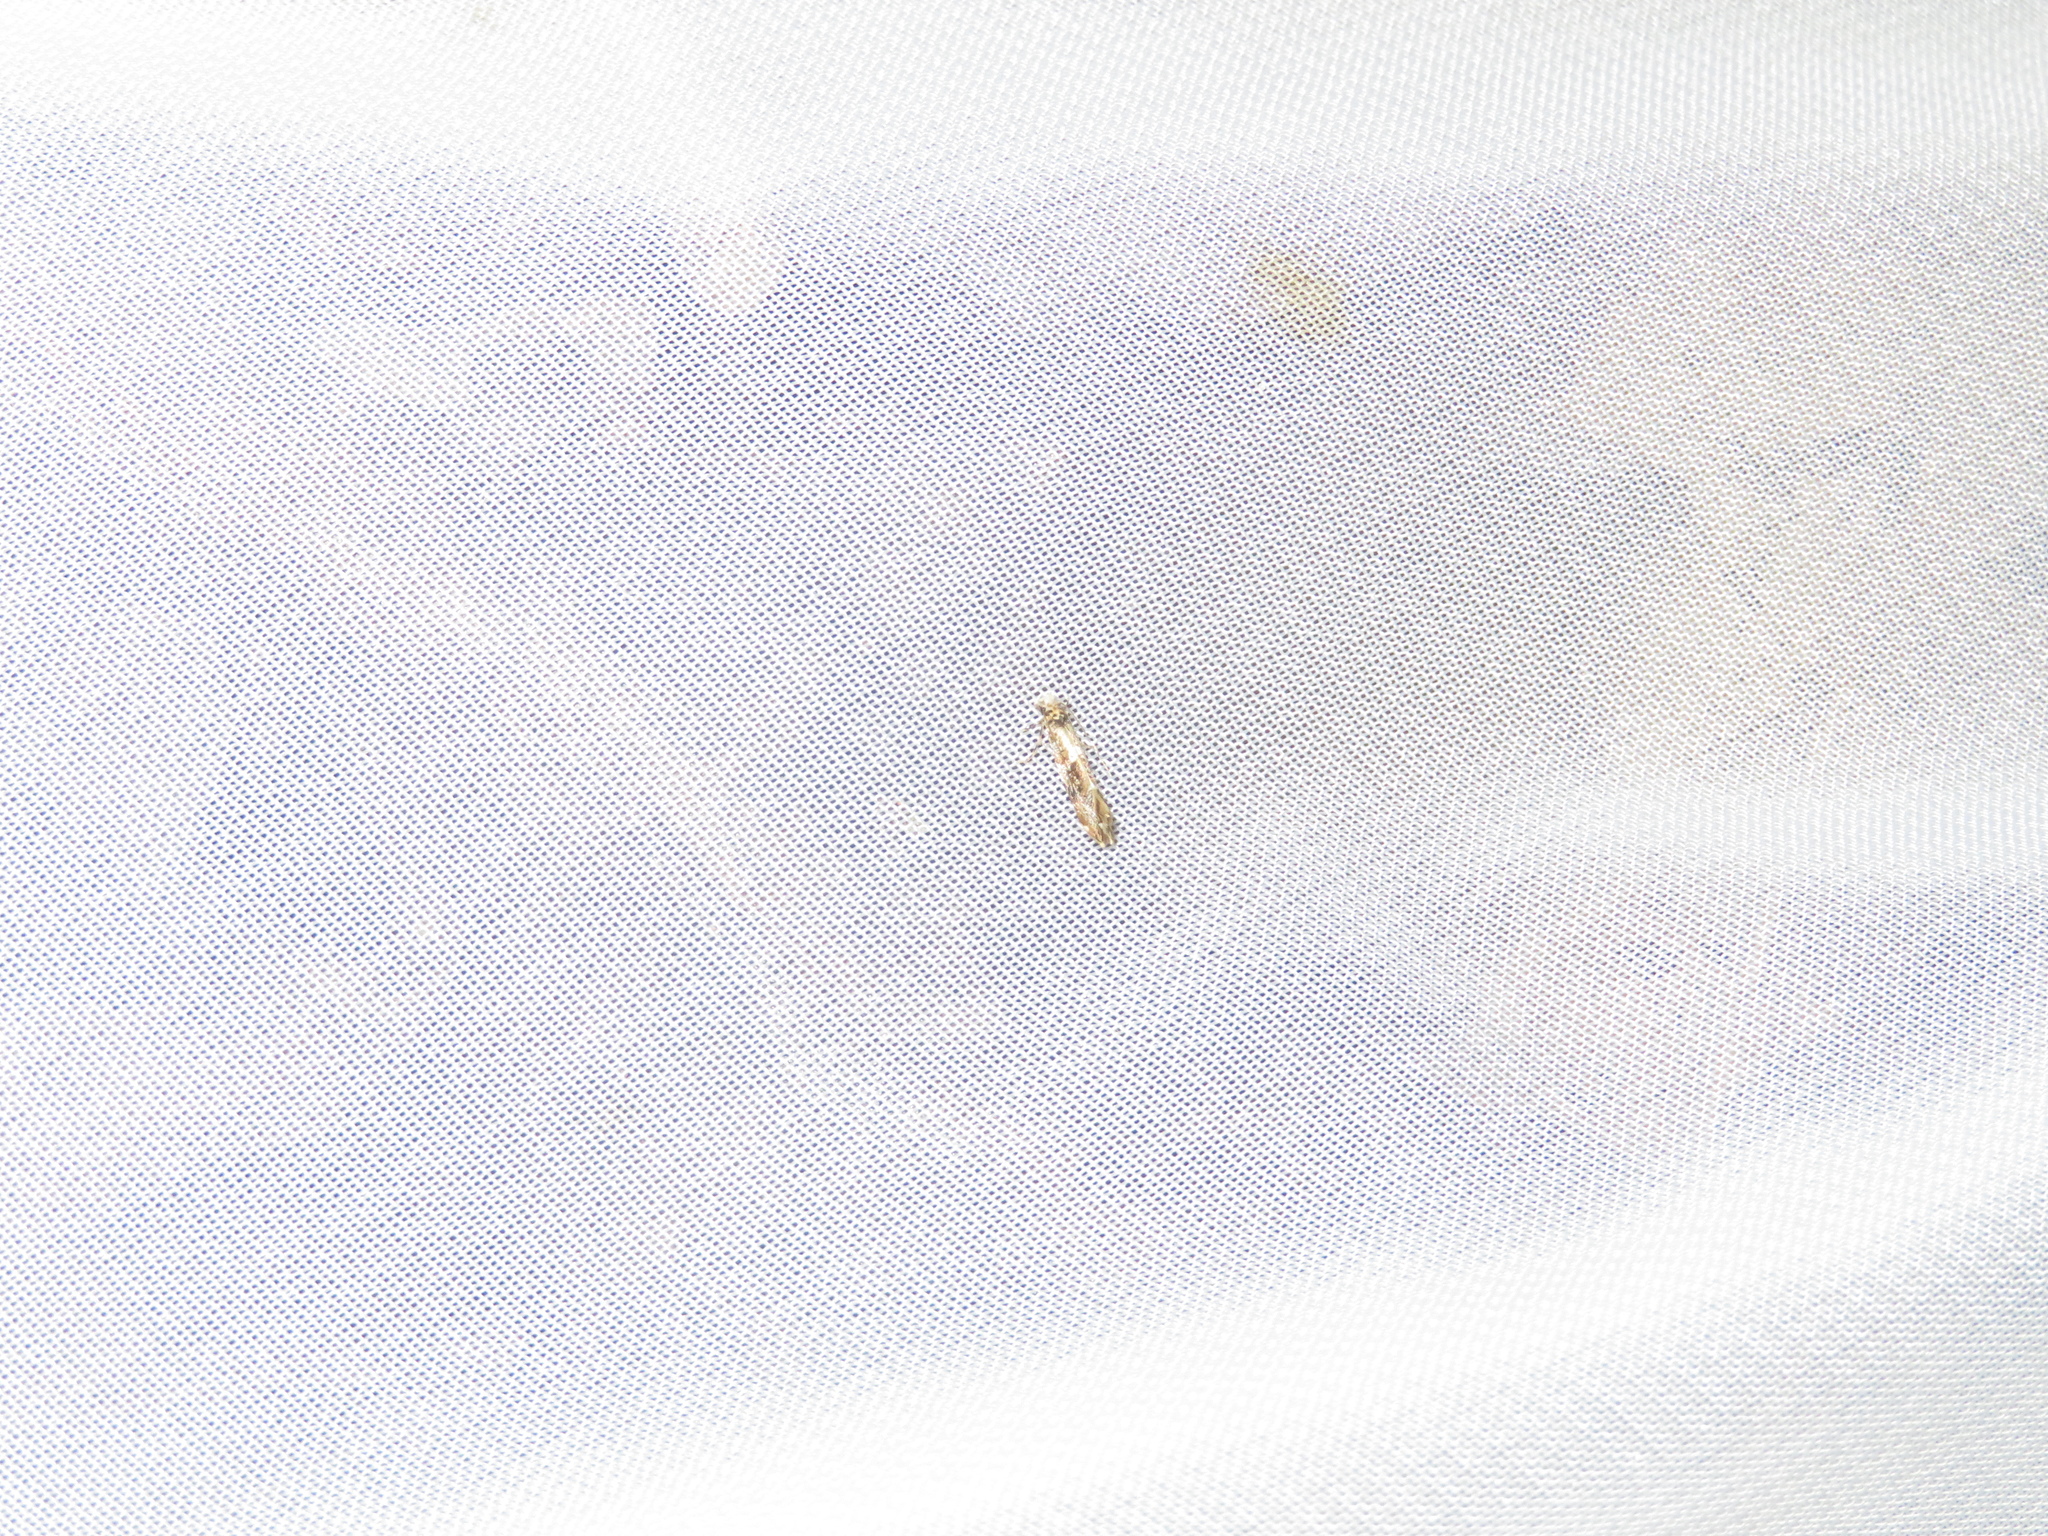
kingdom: Animalia
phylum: Arthropoda
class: Insecta
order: Lepidoptera
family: Dryadaulidae
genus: Dryadaula
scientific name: Dryadaula myrrhina
